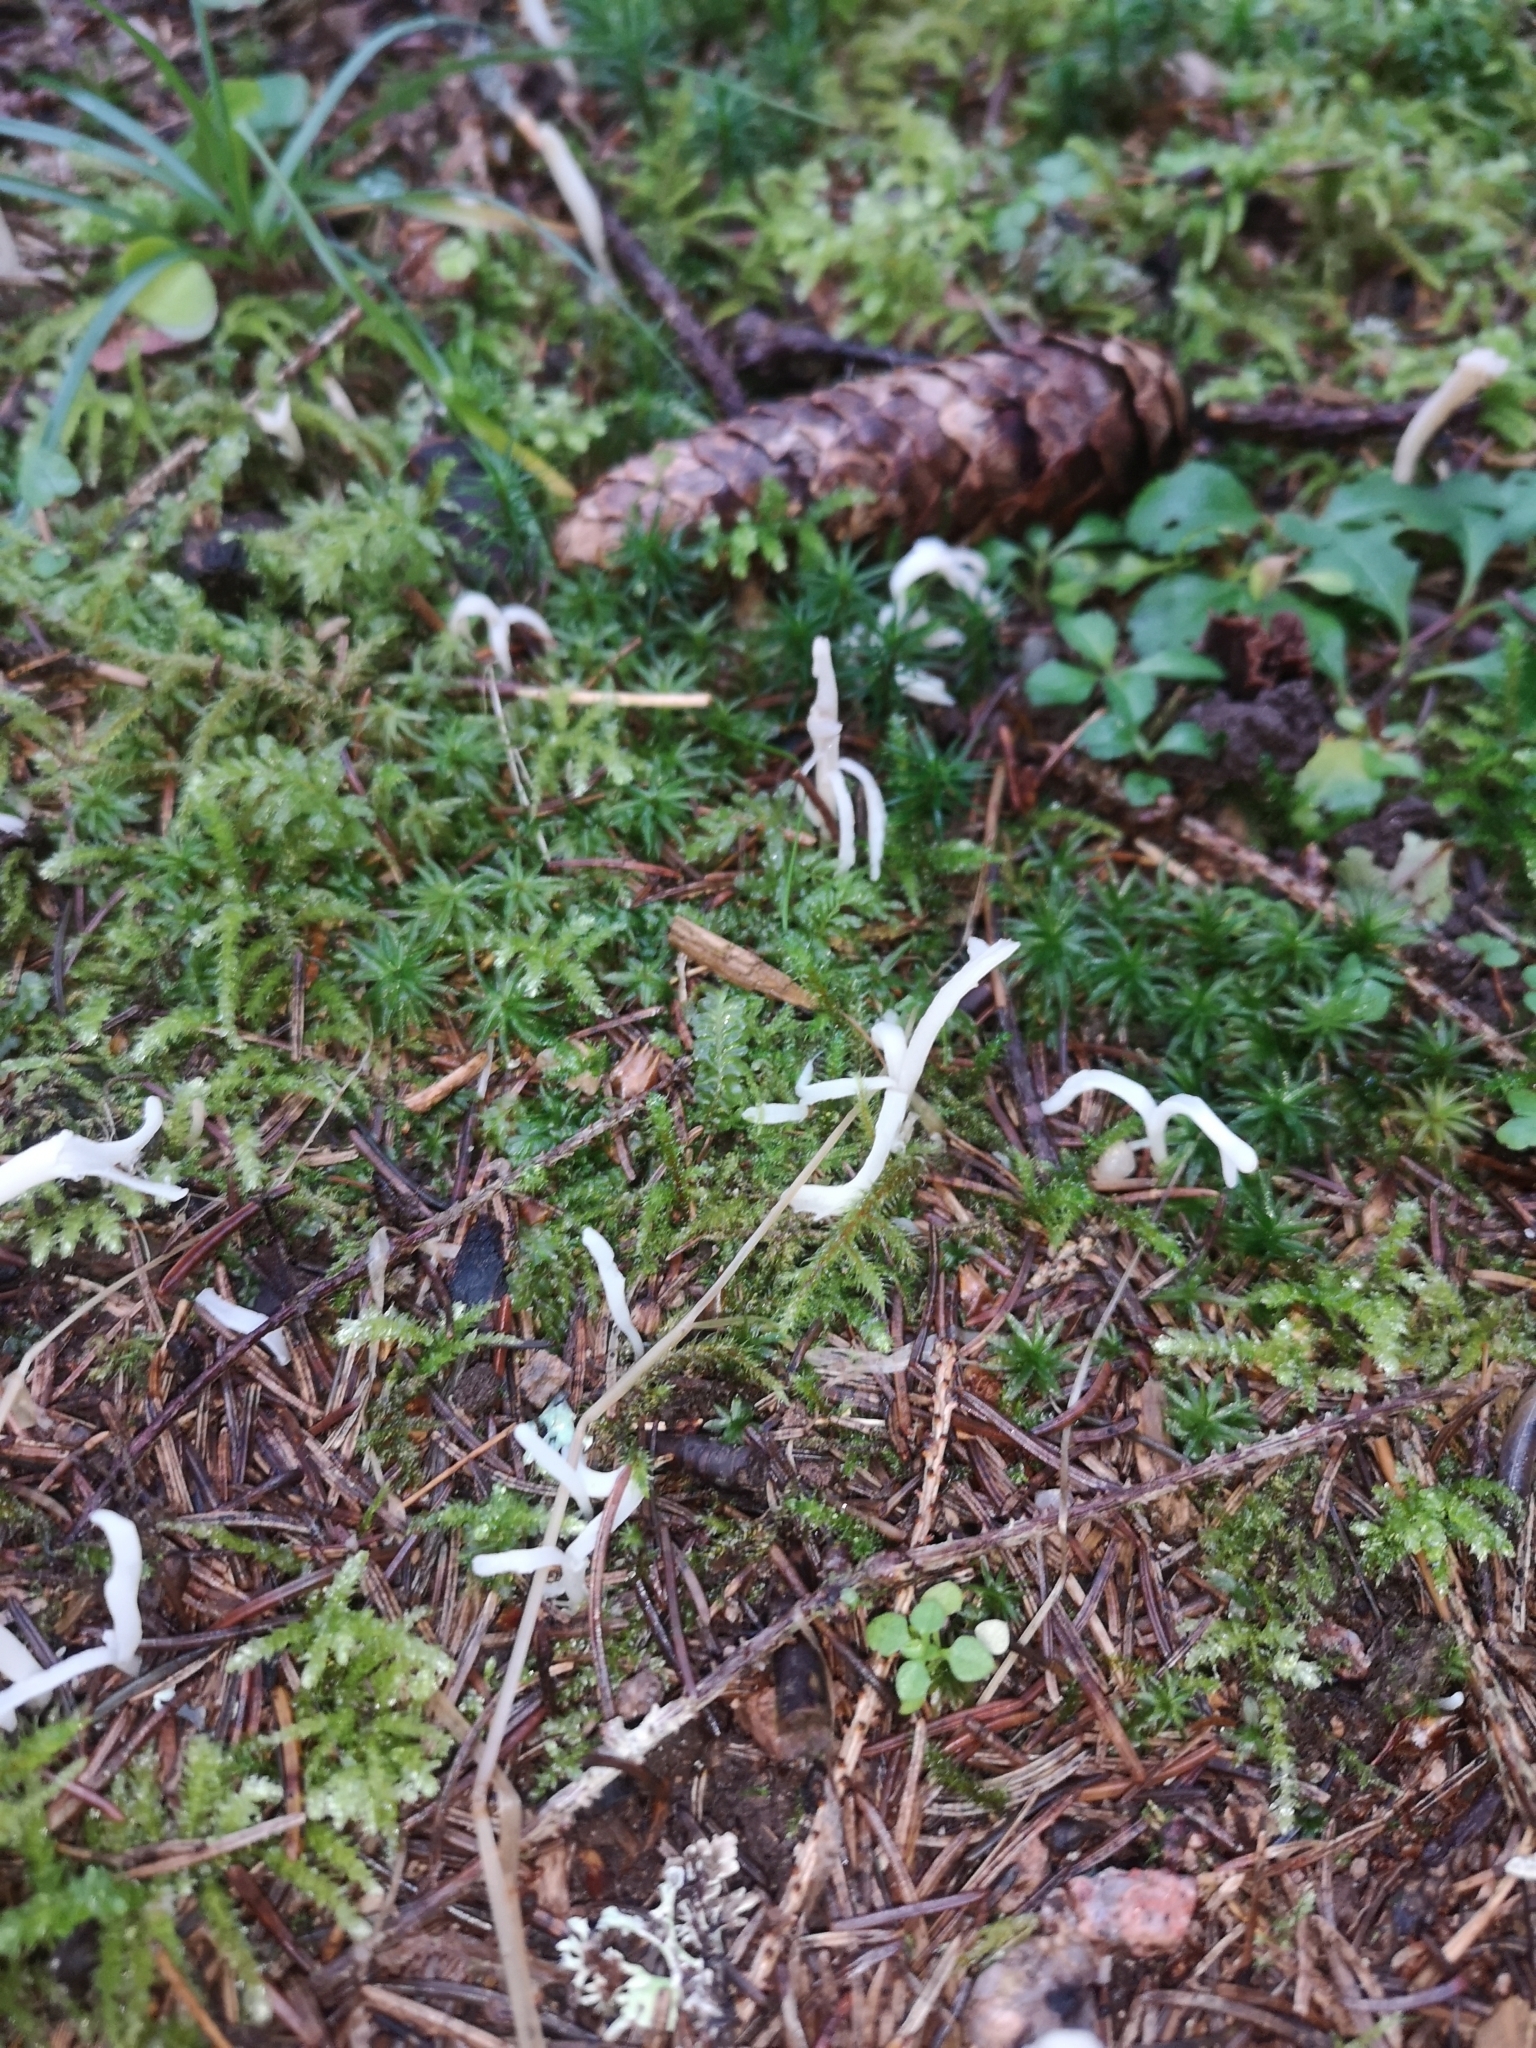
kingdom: Fungi
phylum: Basidiomycota
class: Agaricomycetes
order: Cantharellales
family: Hydnaceae
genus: Clavulina
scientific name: Clavulina rugosa
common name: Wrinkled club
